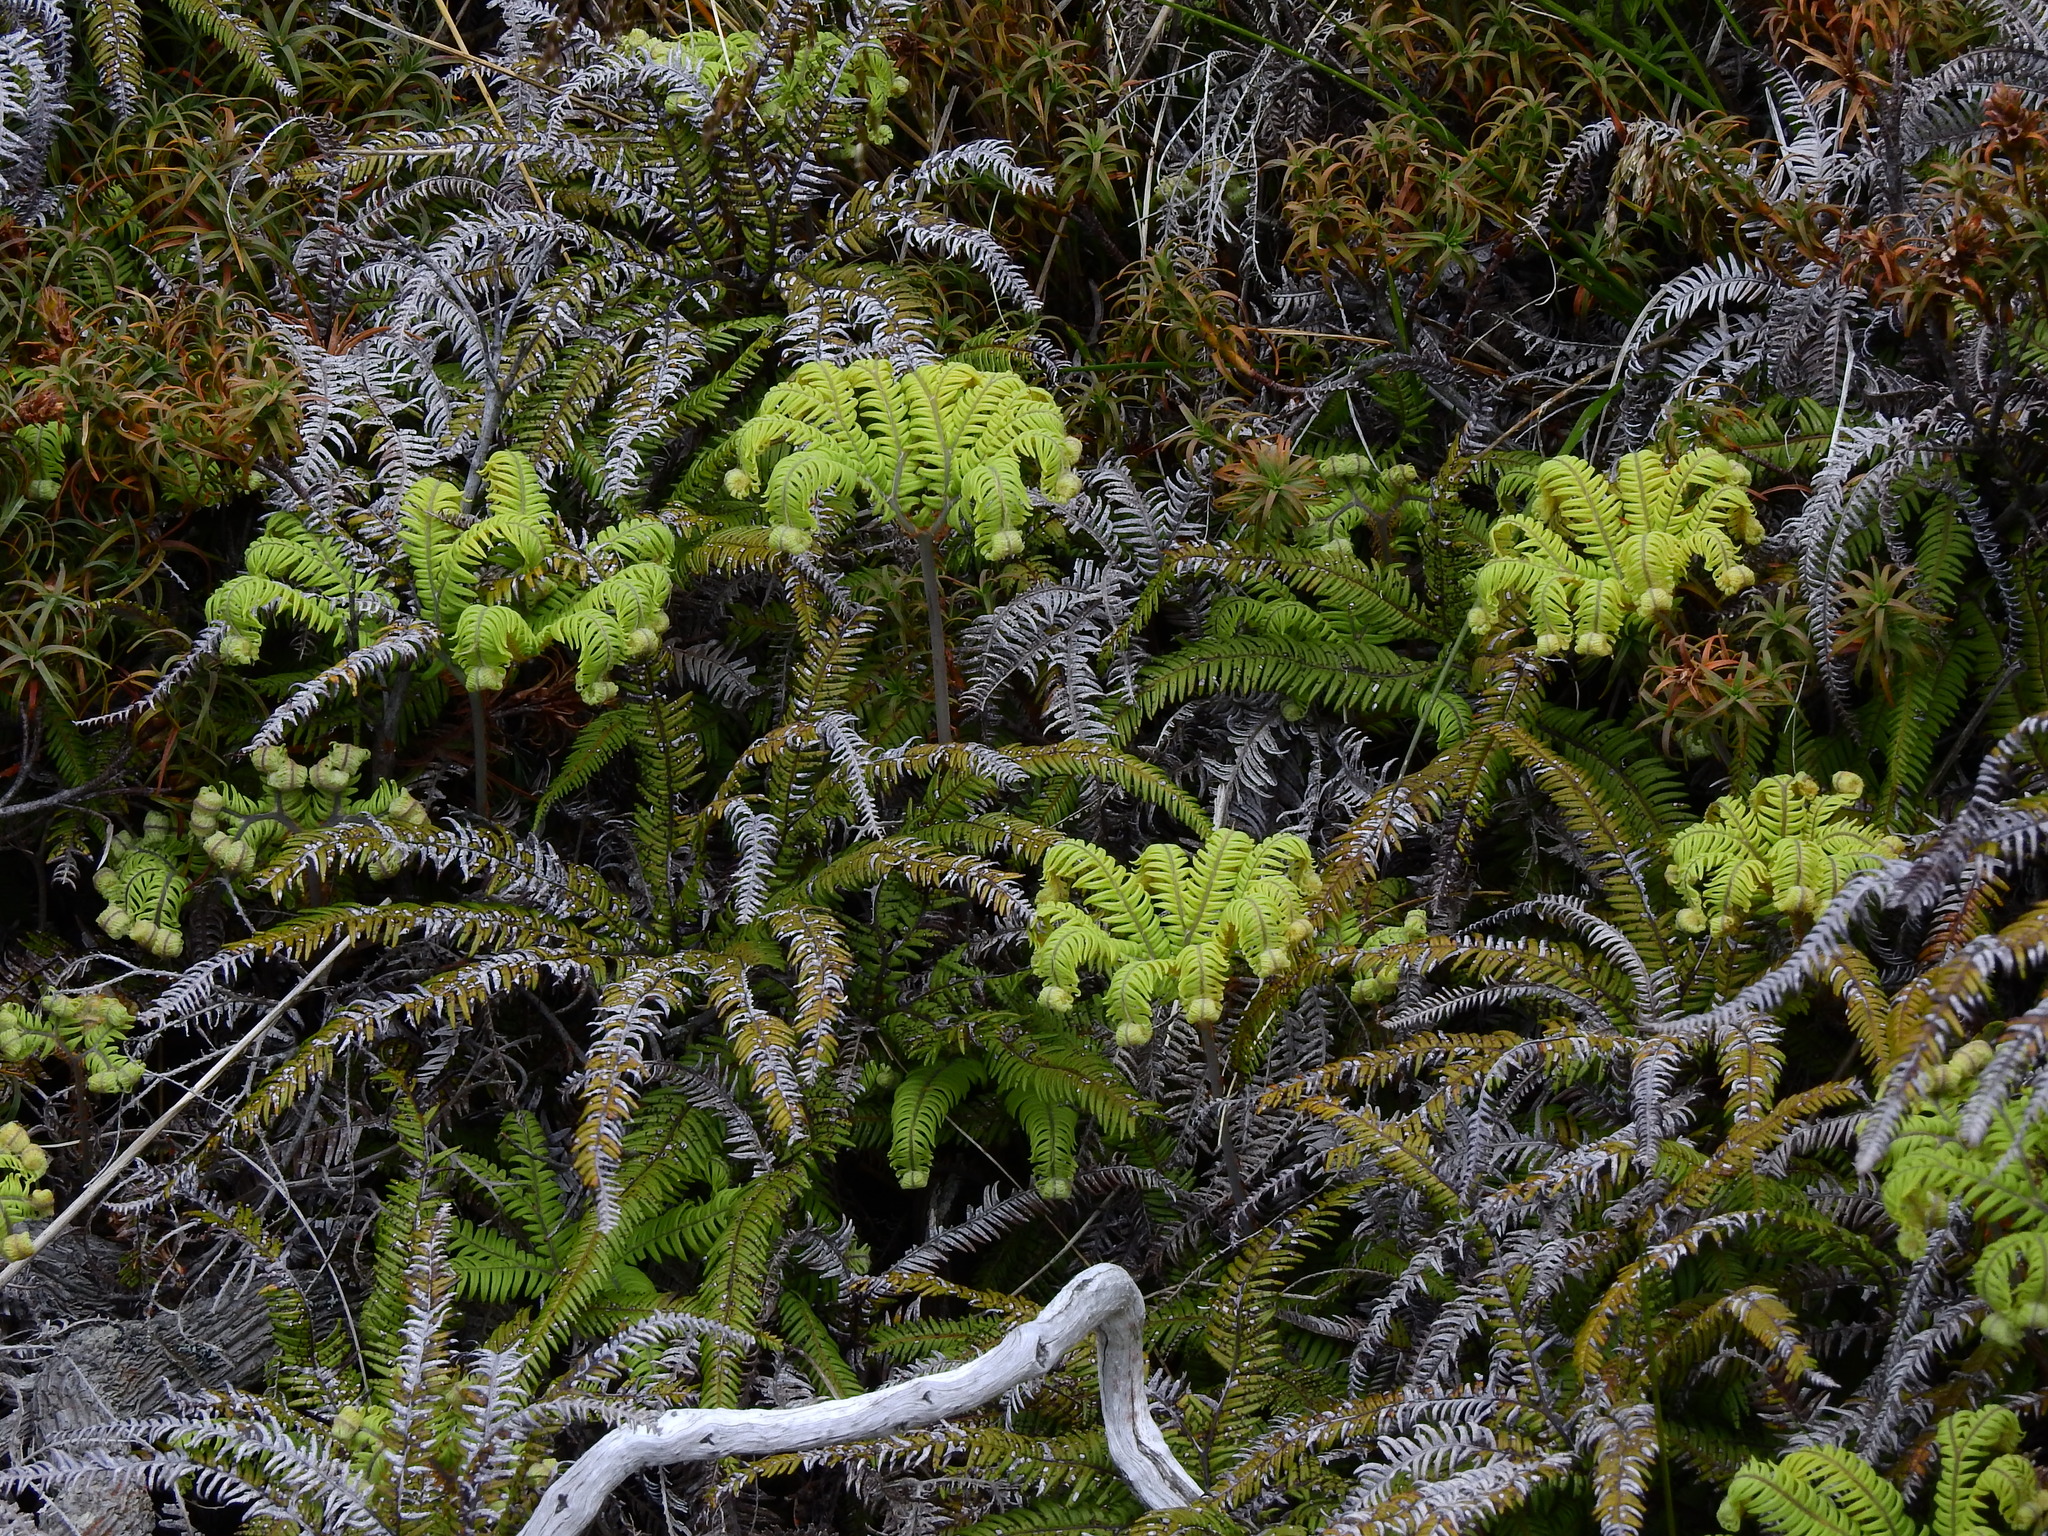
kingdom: Plantae
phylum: Tracheophyta
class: Polypodiopsida
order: Gleicheniales
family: Gleicheniaceae
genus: Sticherus
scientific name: Sticherus cunninghamii
